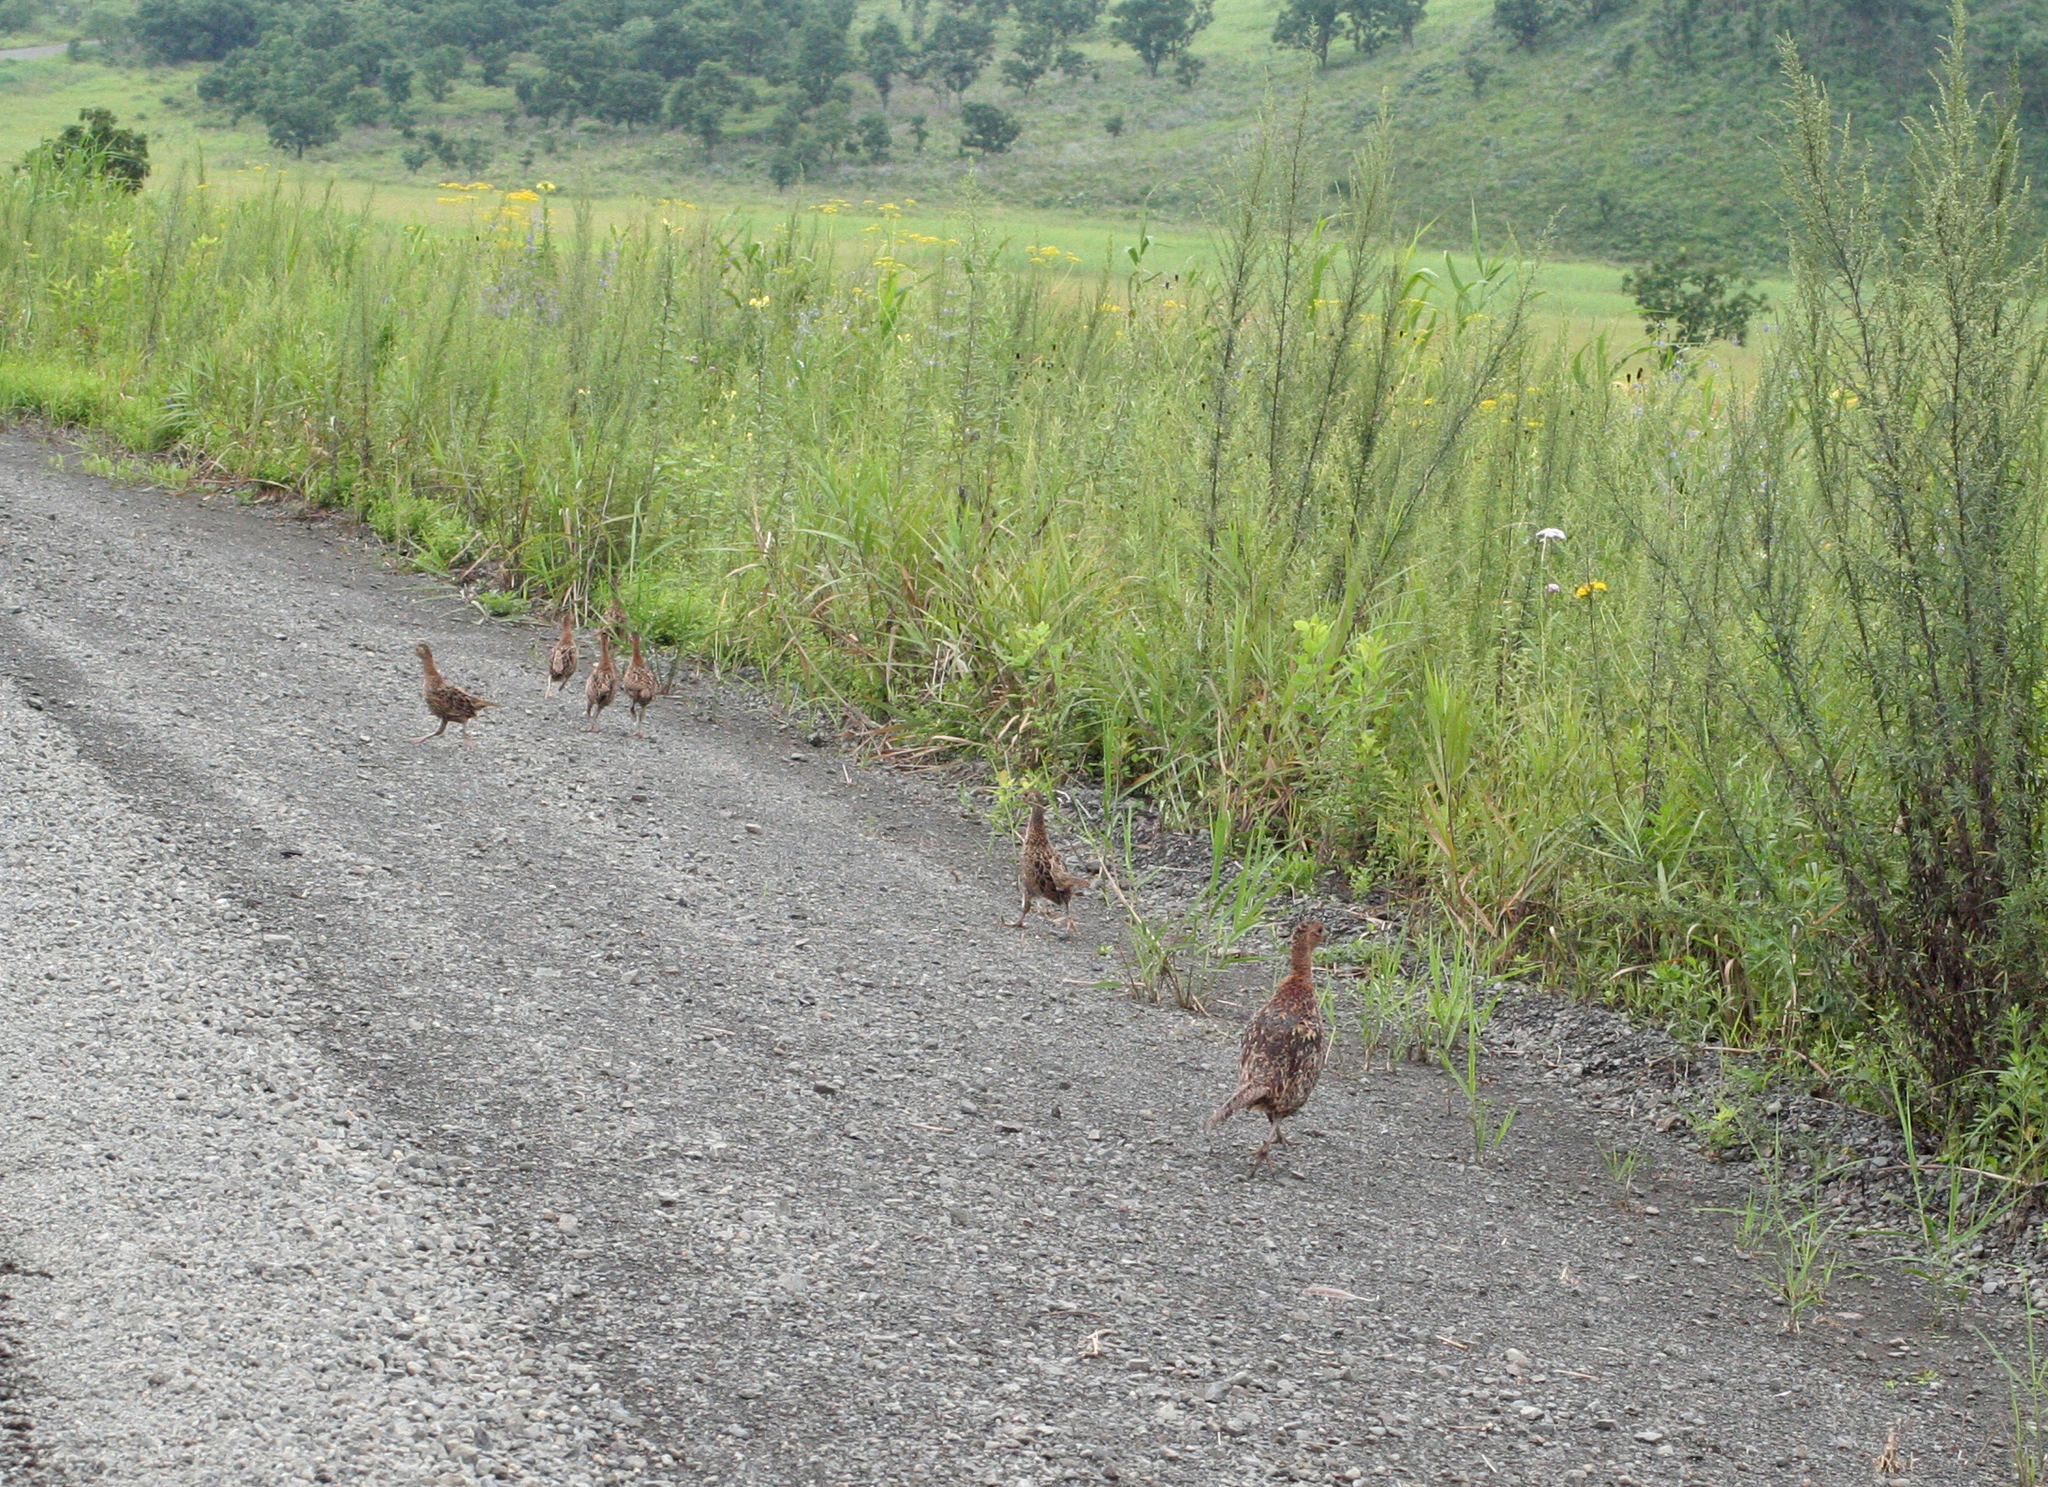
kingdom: Animalia
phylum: Chordata
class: Aves
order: Galliformes
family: Phasianidae
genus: Phasianus
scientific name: Phasianus colchicus
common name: Common pheasant
